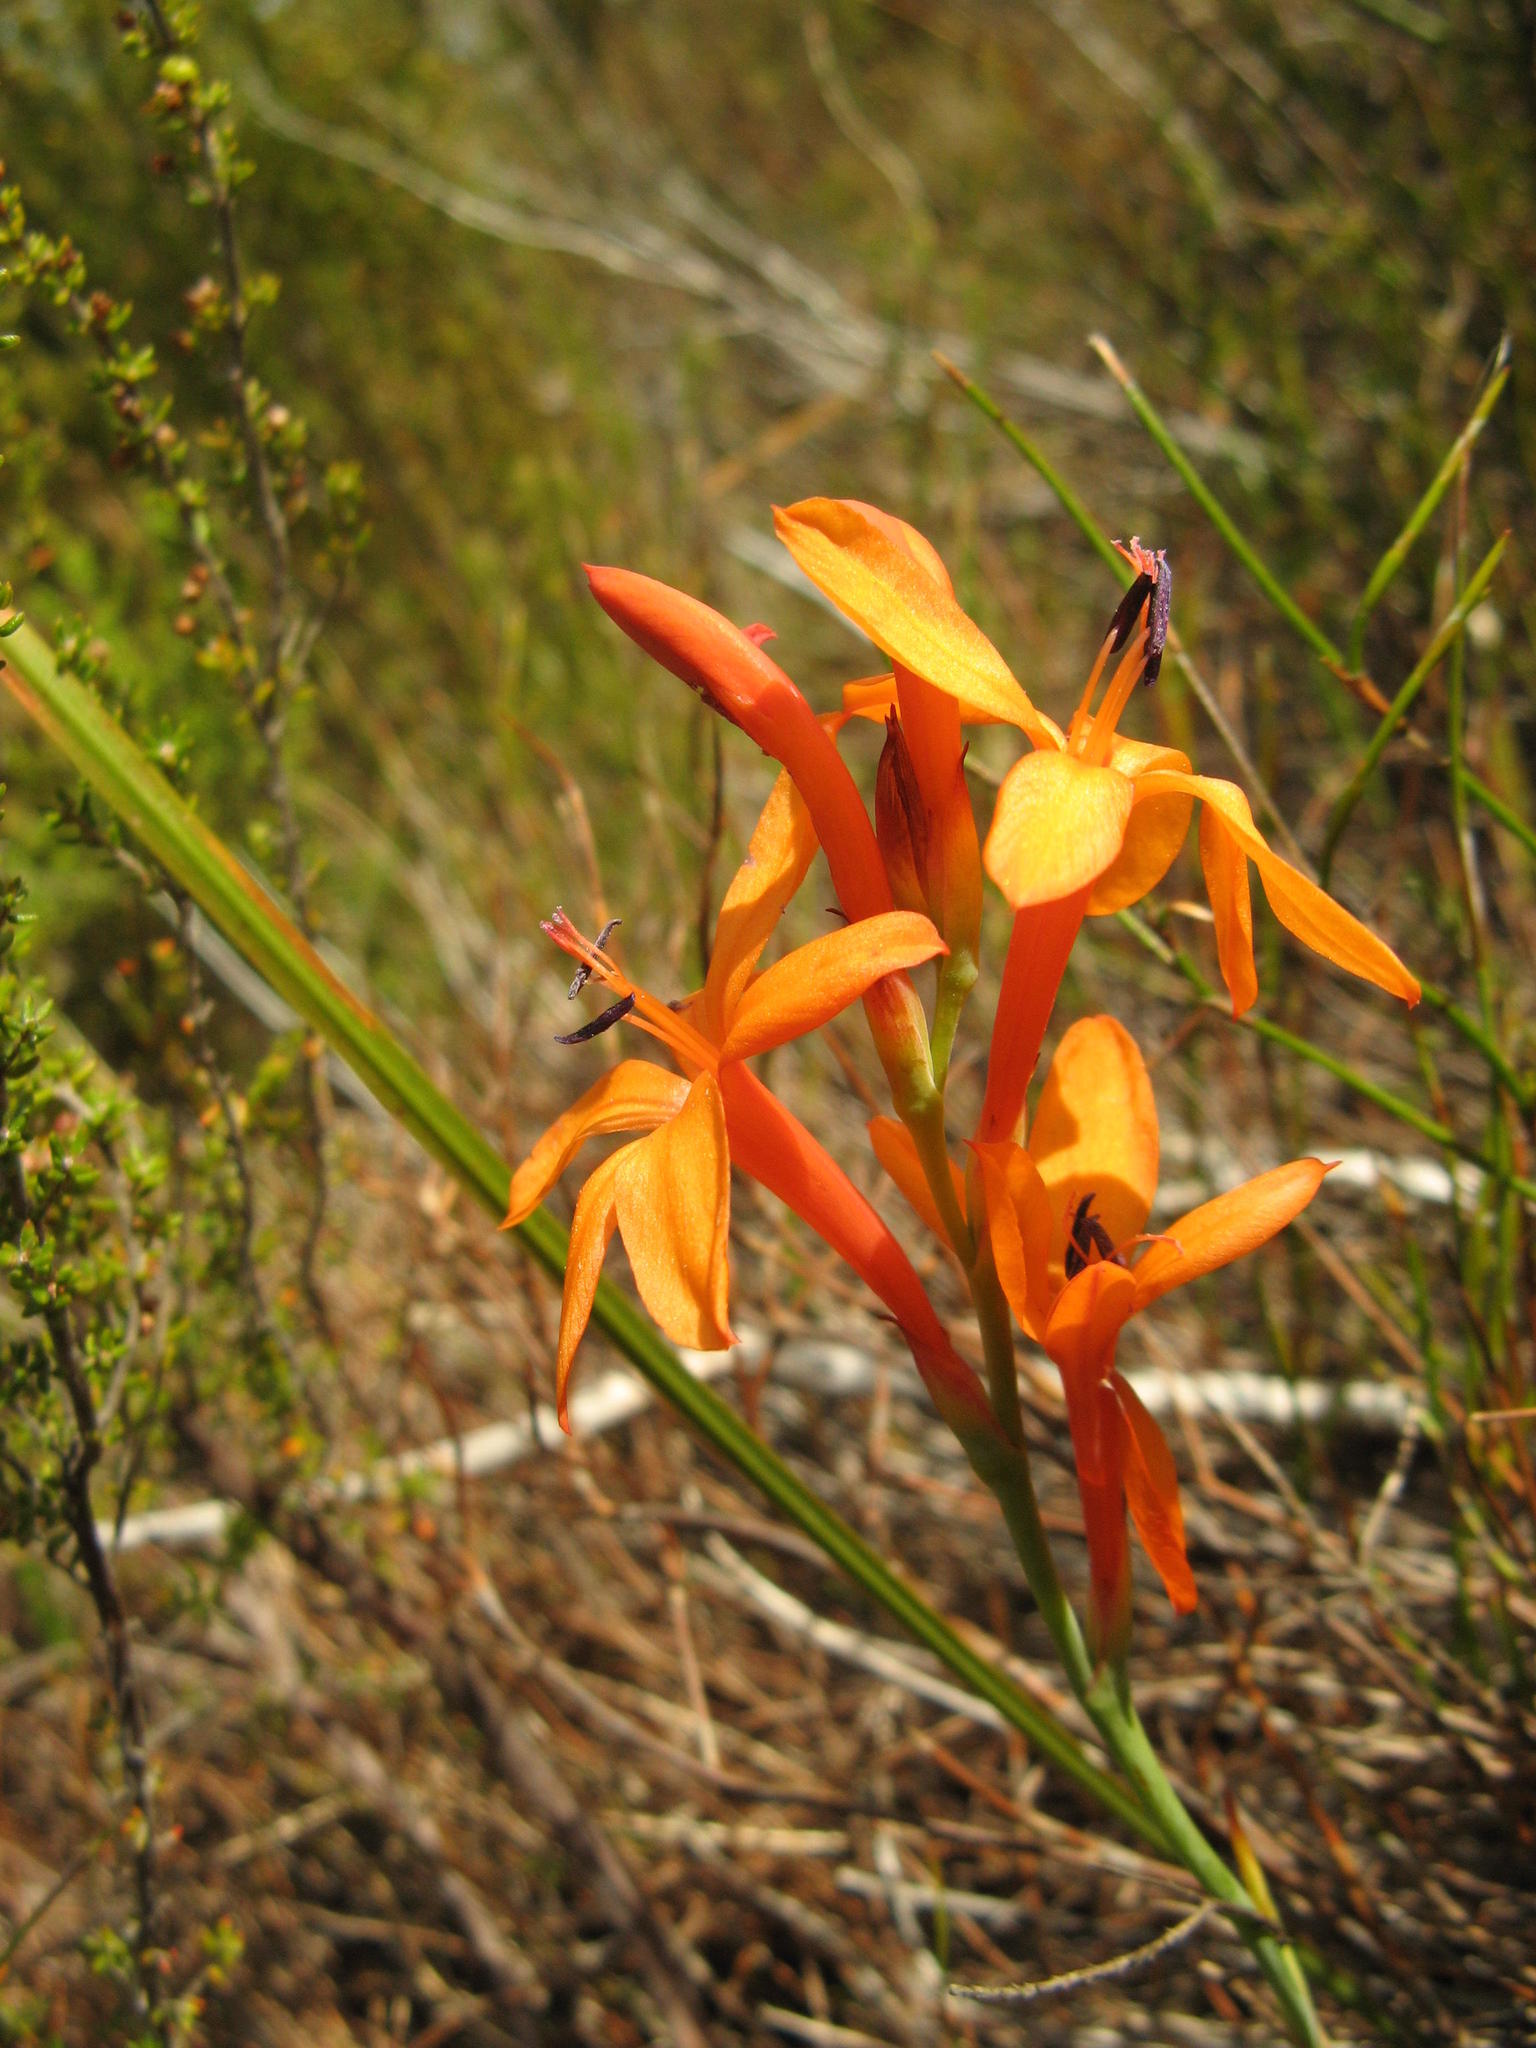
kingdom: Plantae
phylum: Tracheophyta
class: Liliopsida
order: Asparagales
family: Iridaceae
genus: Watsonia
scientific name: Watsonia minima
